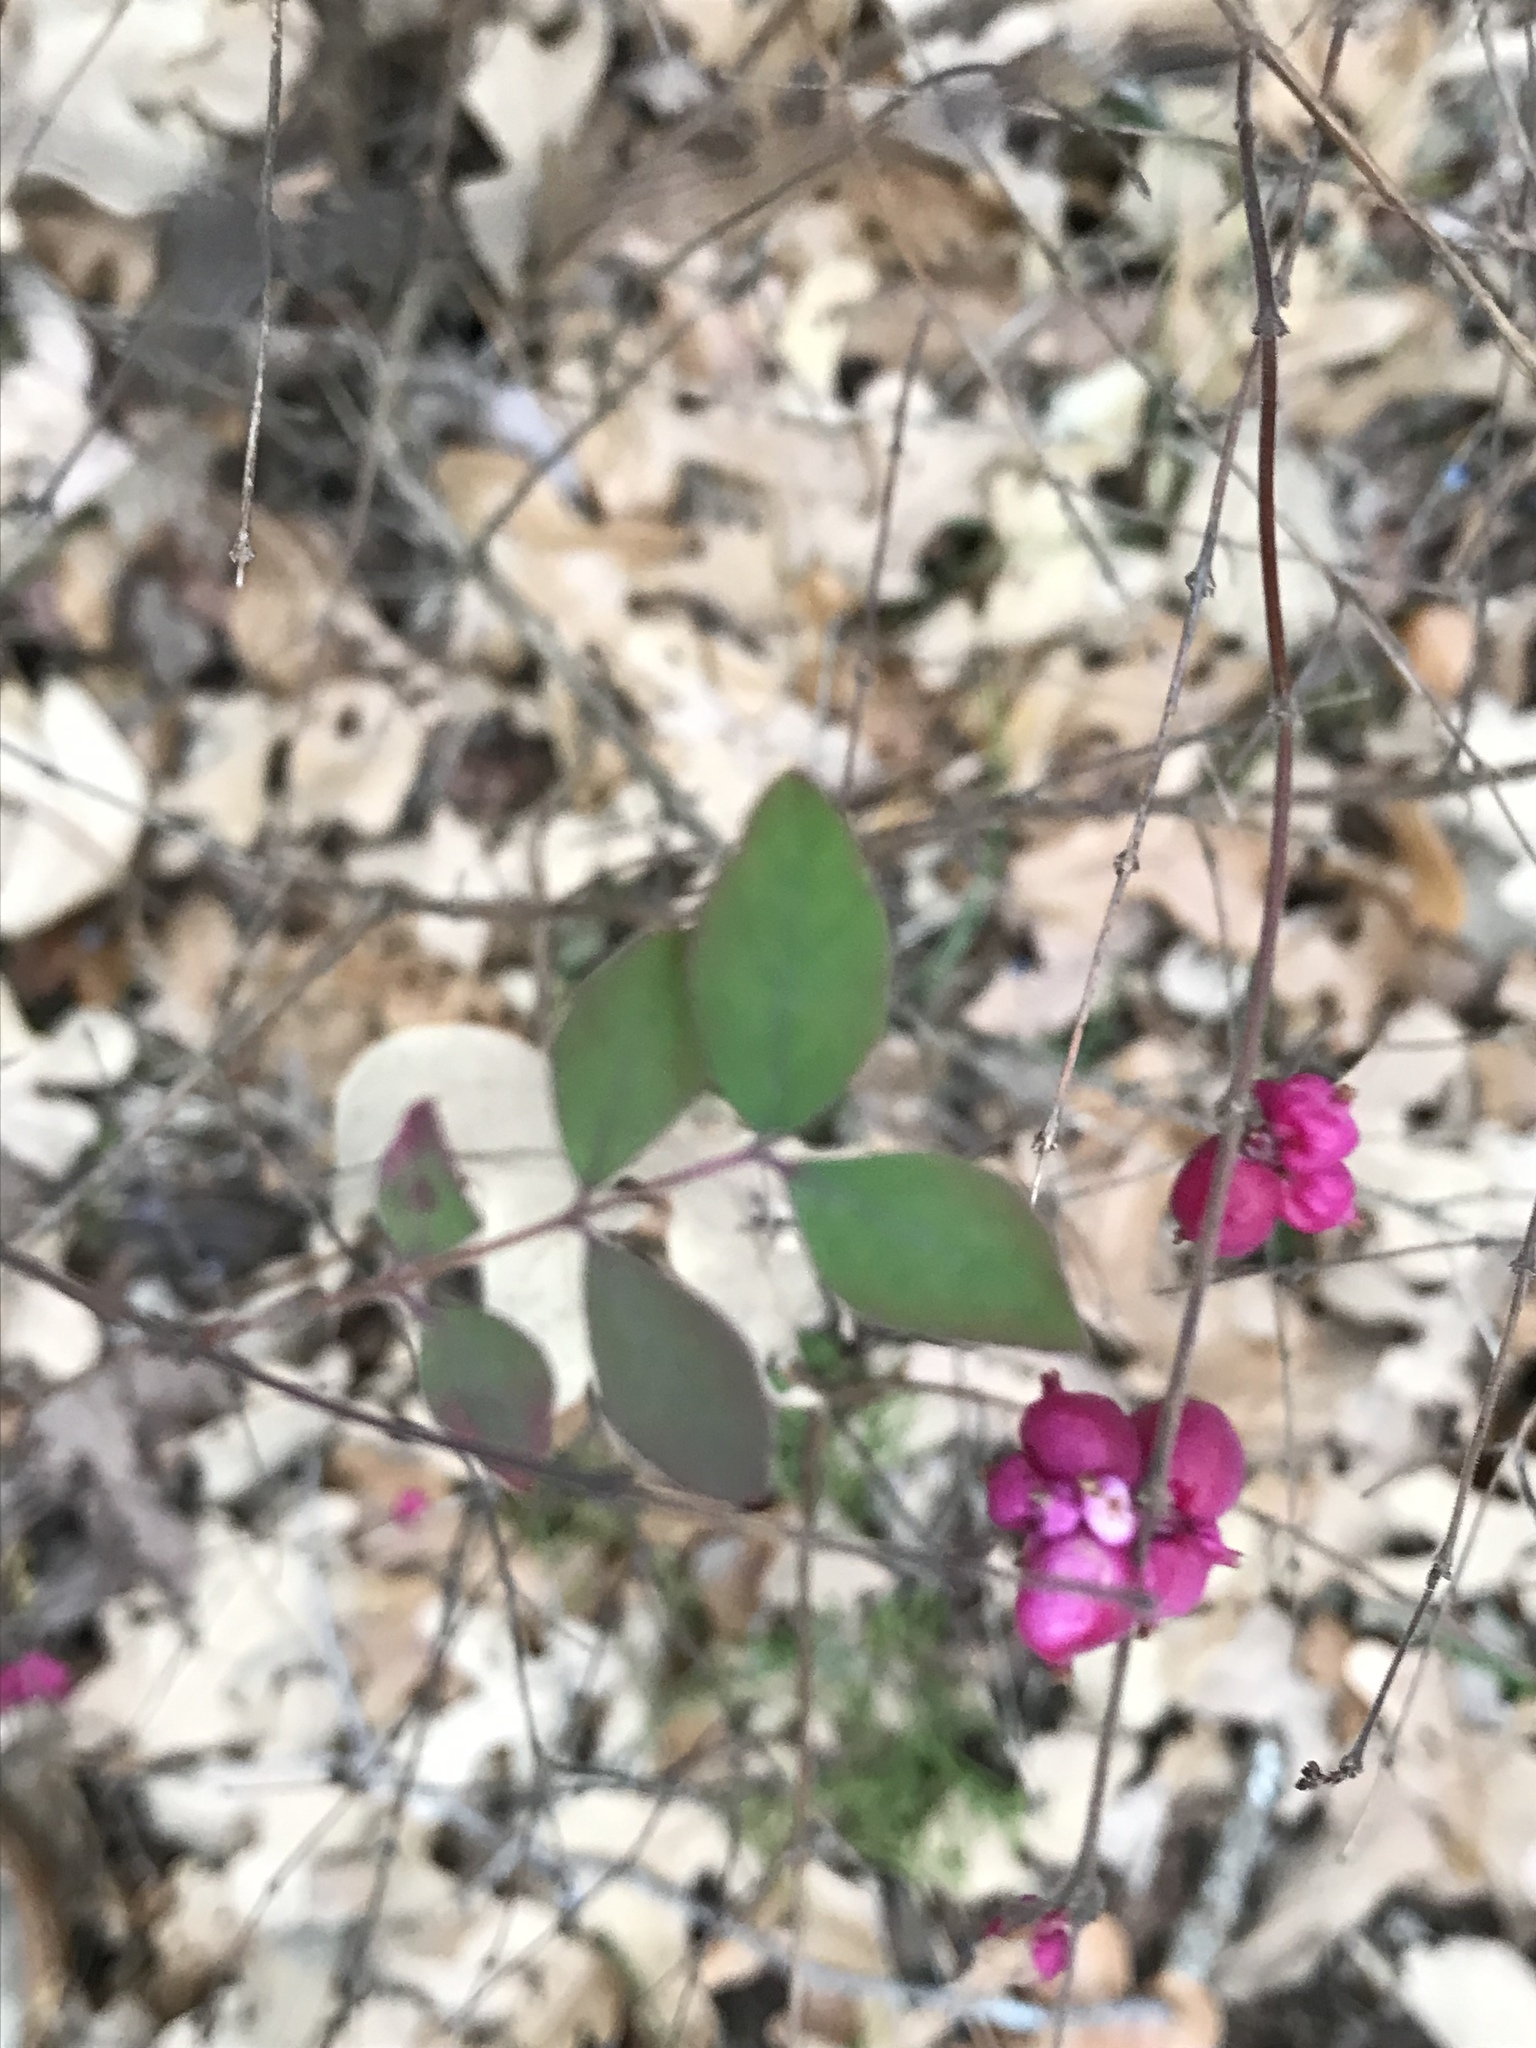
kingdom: Plantae
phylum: Tracheophyta
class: Magnoliopsida
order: Dipsacales
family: Caprifoliaceae
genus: Symphoricarpos
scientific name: Symphoricarpos orbiculatus
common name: Coralberry
